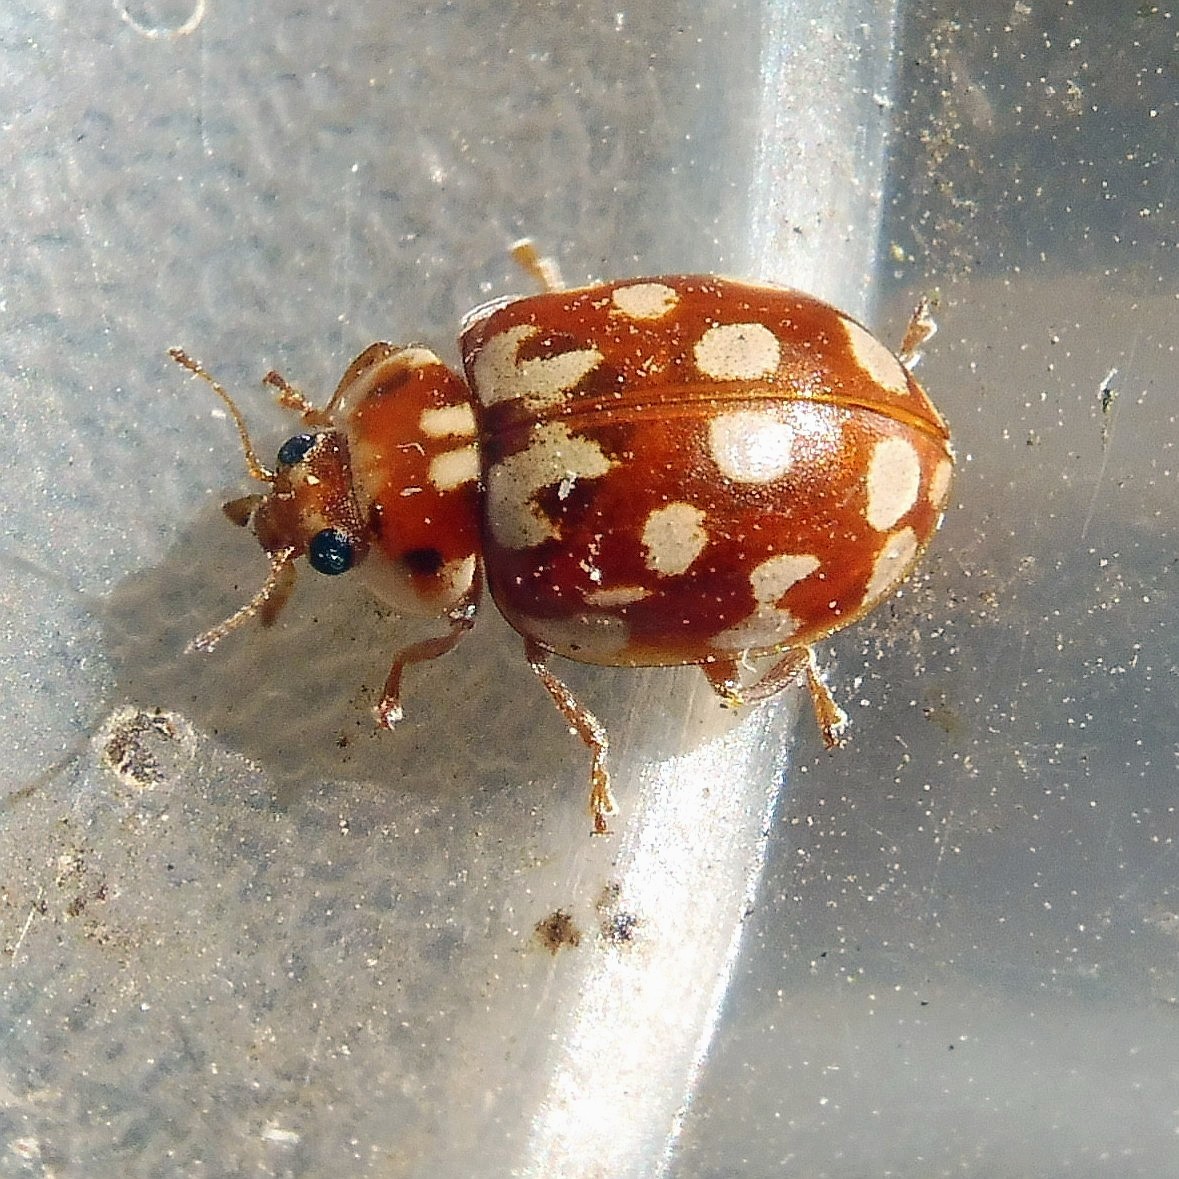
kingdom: Animalia
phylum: Arthropoda
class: Insecta
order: Coleoptera
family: Coccinellidae
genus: Myrrha
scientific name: Myrrha octodecimguttata
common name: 18-spot ladybird
